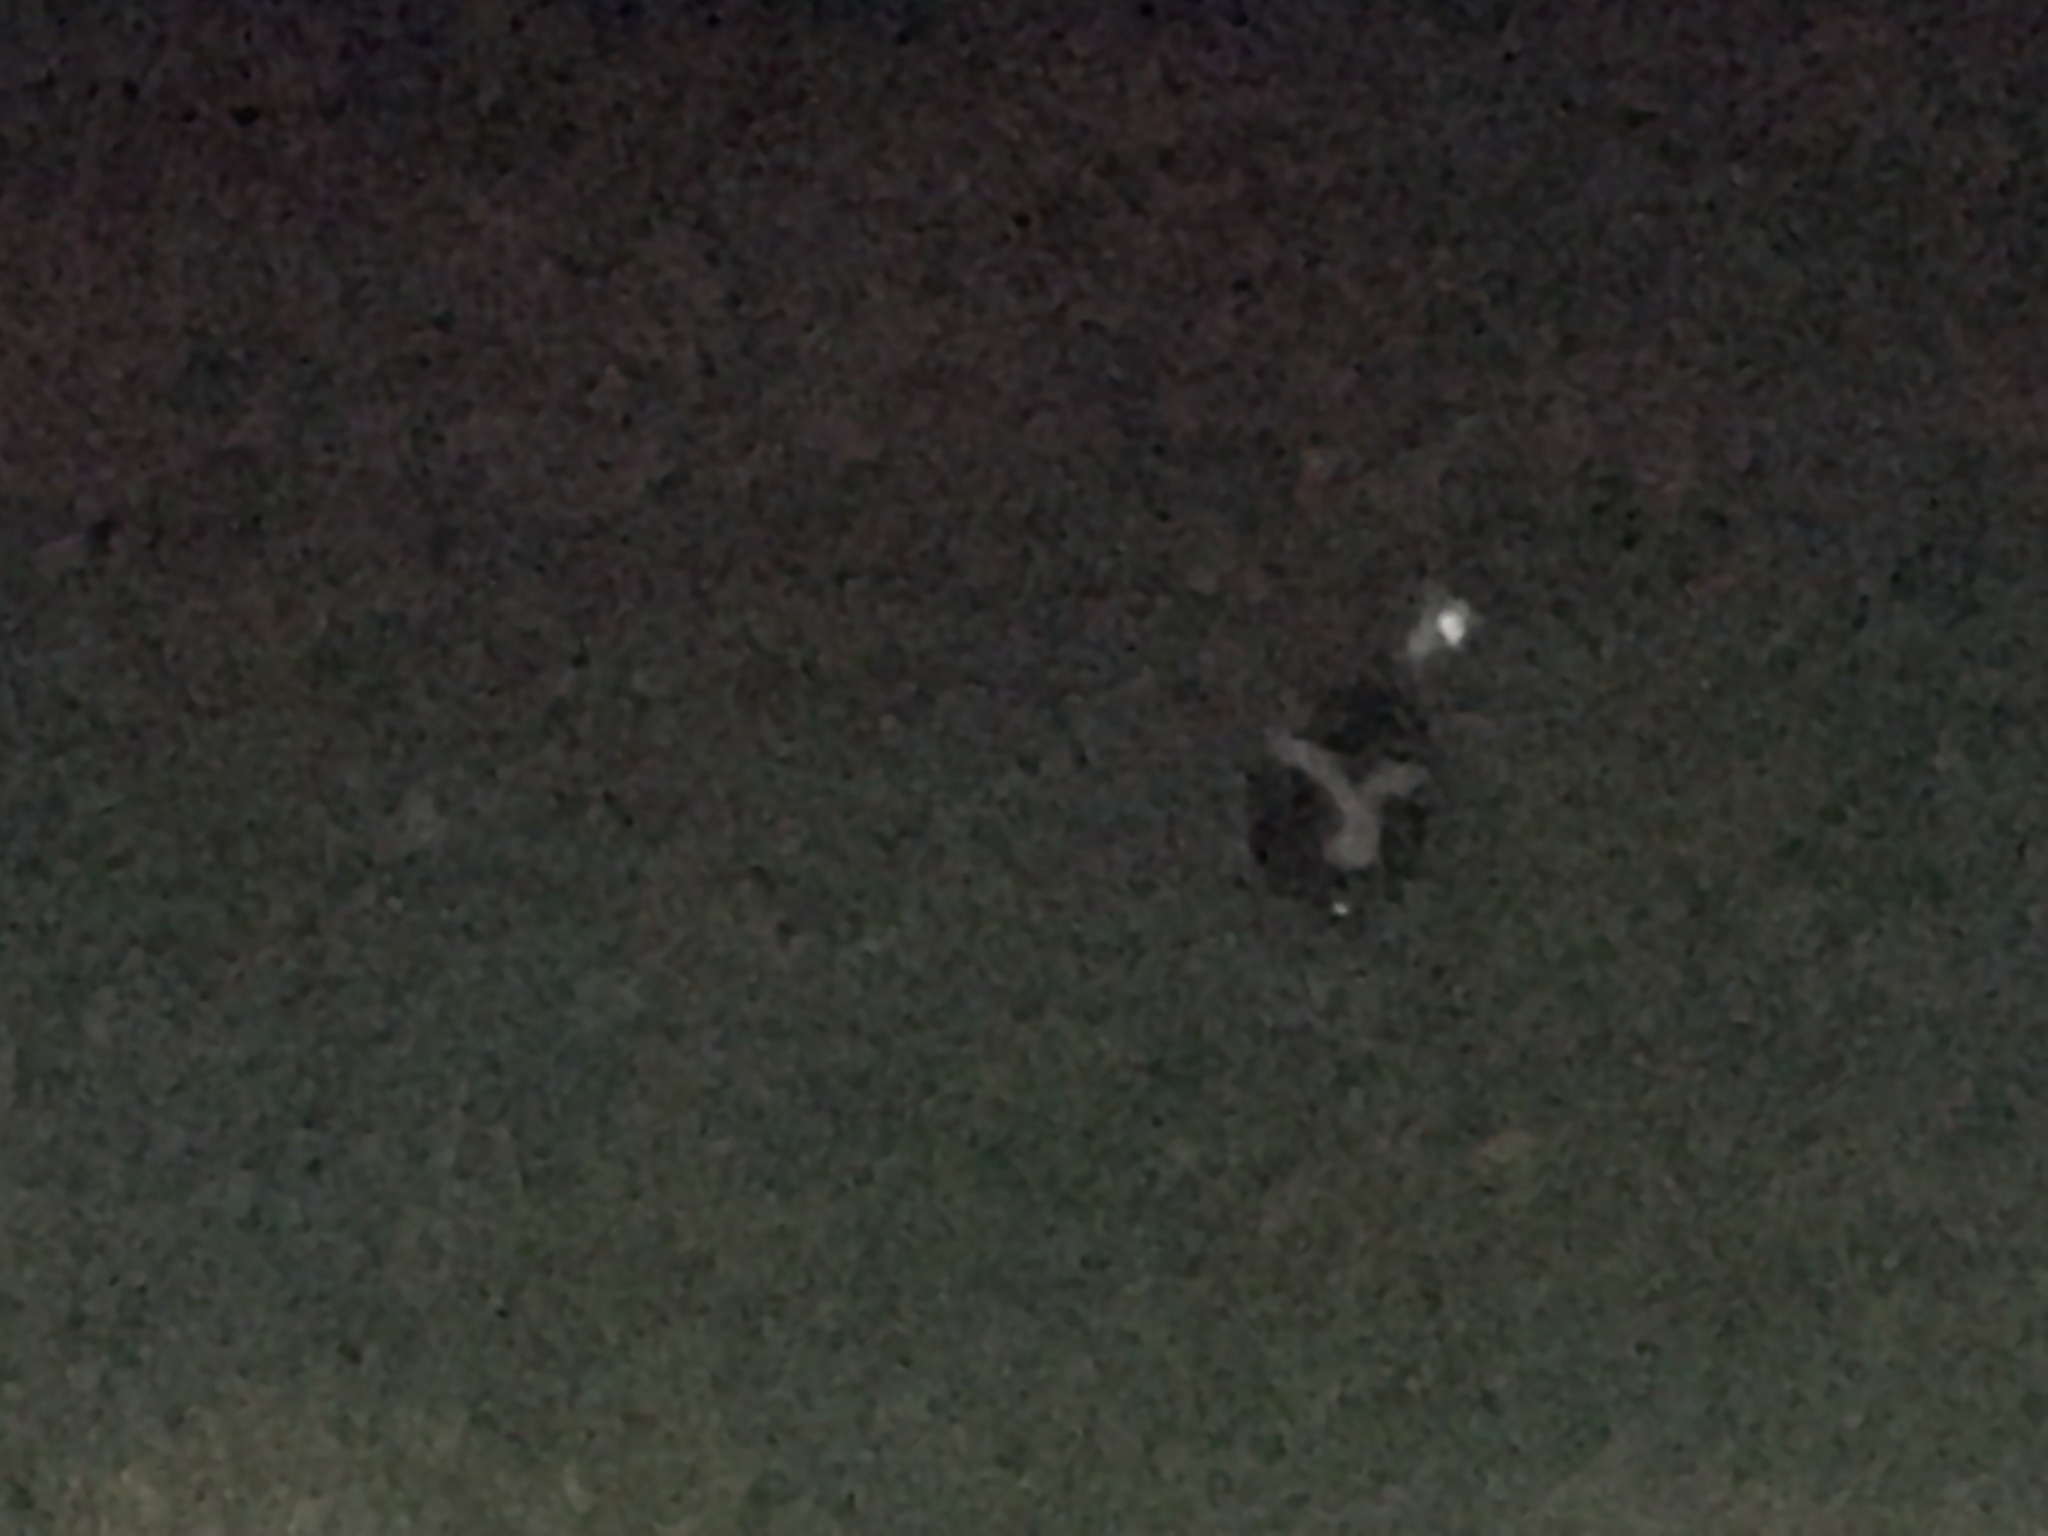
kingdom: Animalia
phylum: Chordata
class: Mammalia
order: Carnivora
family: Mephitidae
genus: Mephitis
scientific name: Mephitis mephitis
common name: Striped skunk
